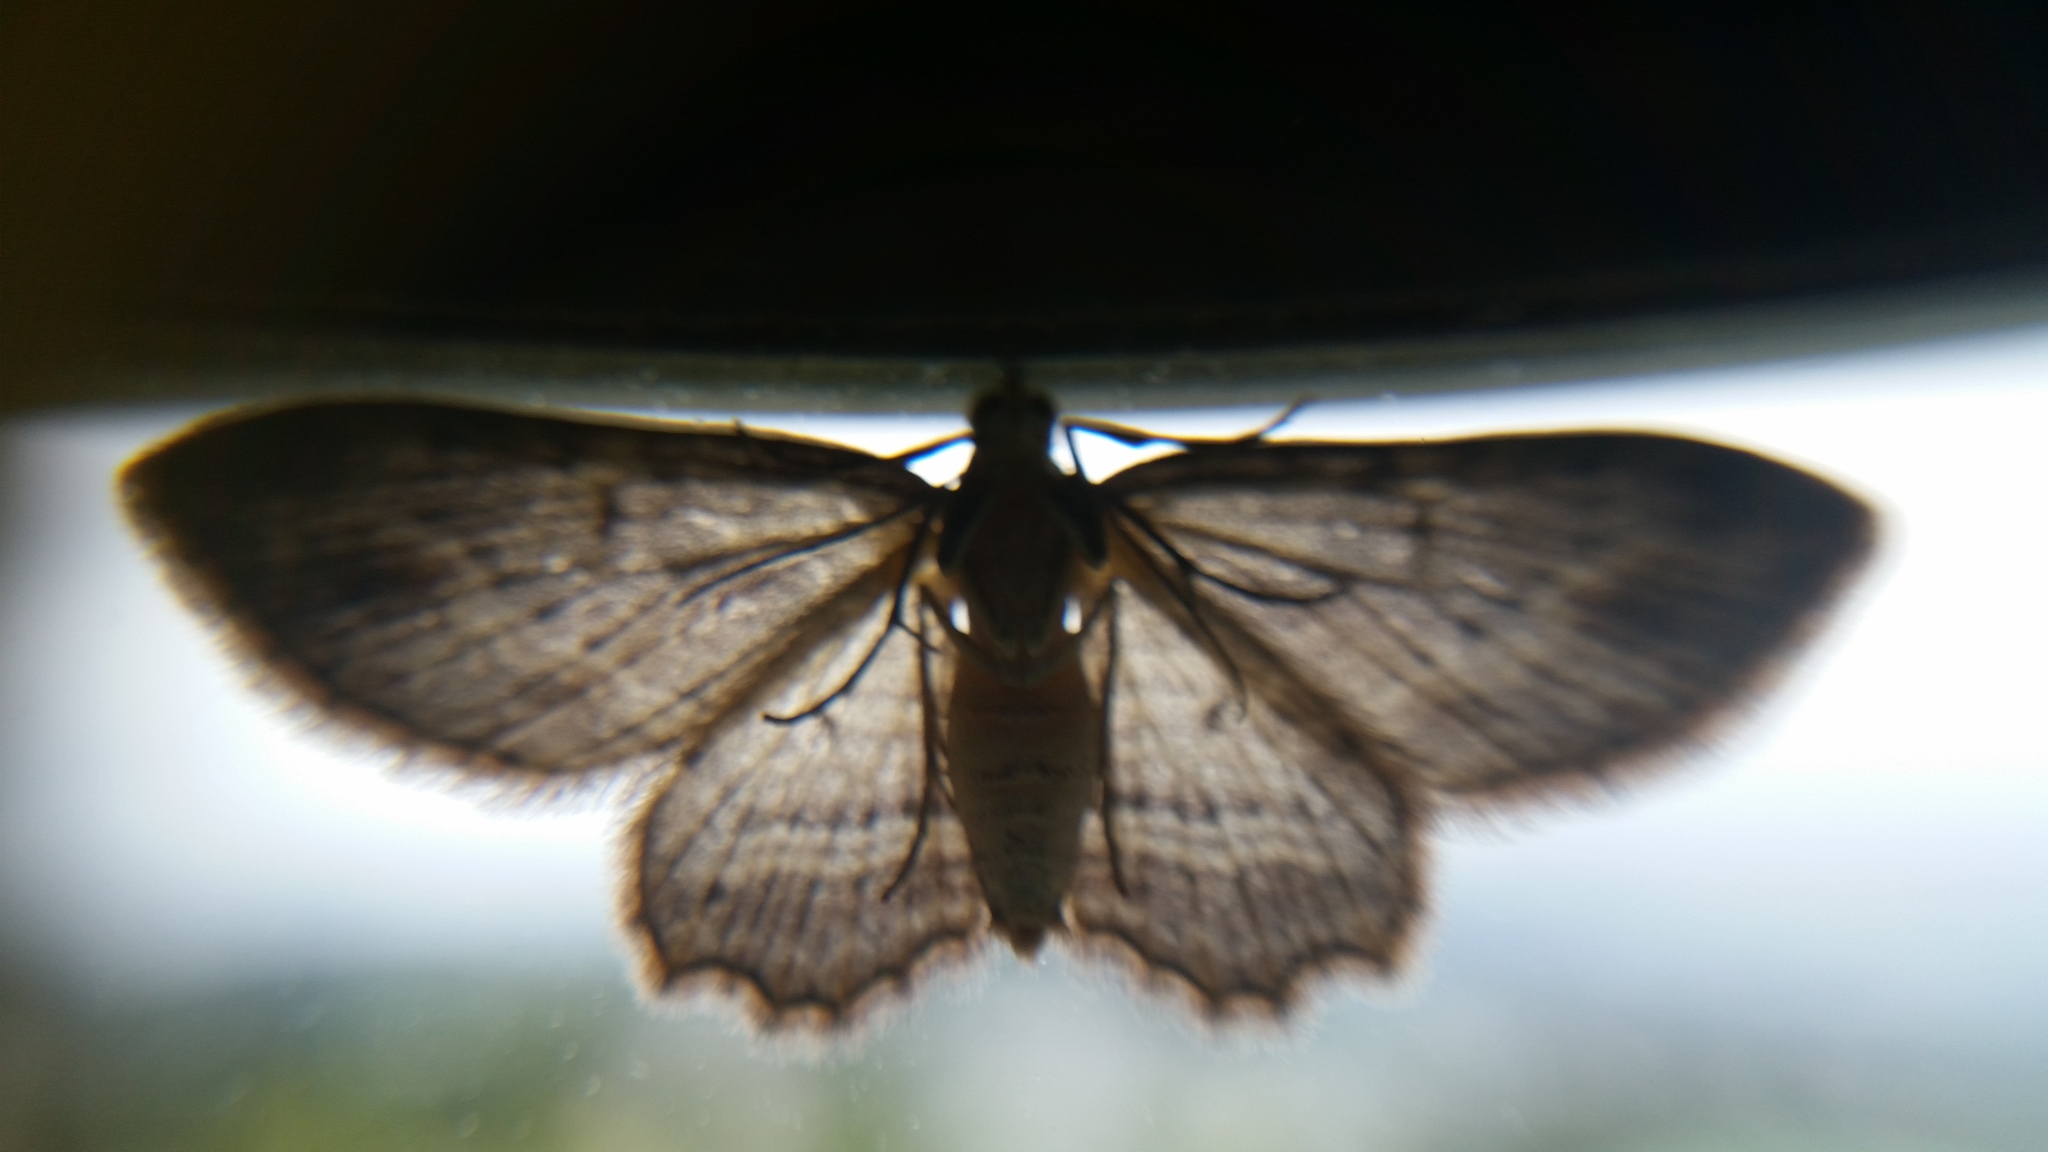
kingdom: Animalia
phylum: Arthropoda
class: Insecta
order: Lepidoptera
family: Geometridae
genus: Chloroclystis
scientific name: Chloroclystis filata
